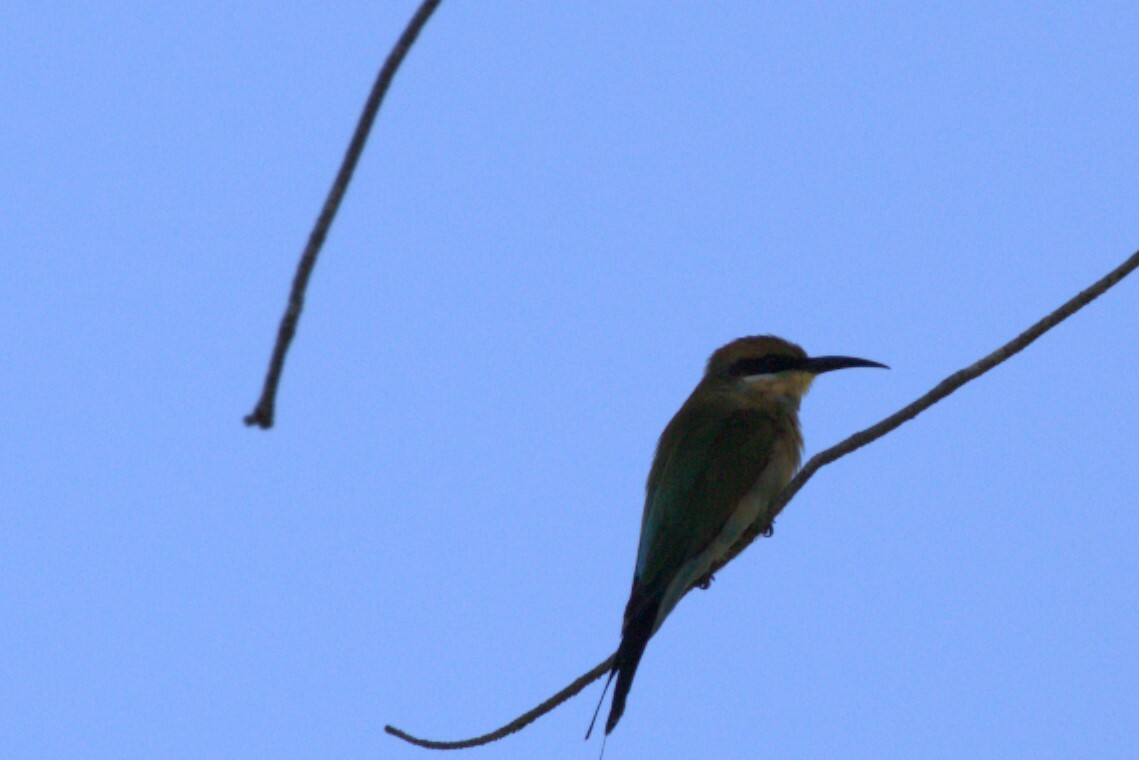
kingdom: Animalia
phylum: Chordata
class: Aves
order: Coraciiformes
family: Meropidae
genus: Merops
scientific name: Merops ornatus
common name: Rainbow bee-eater
